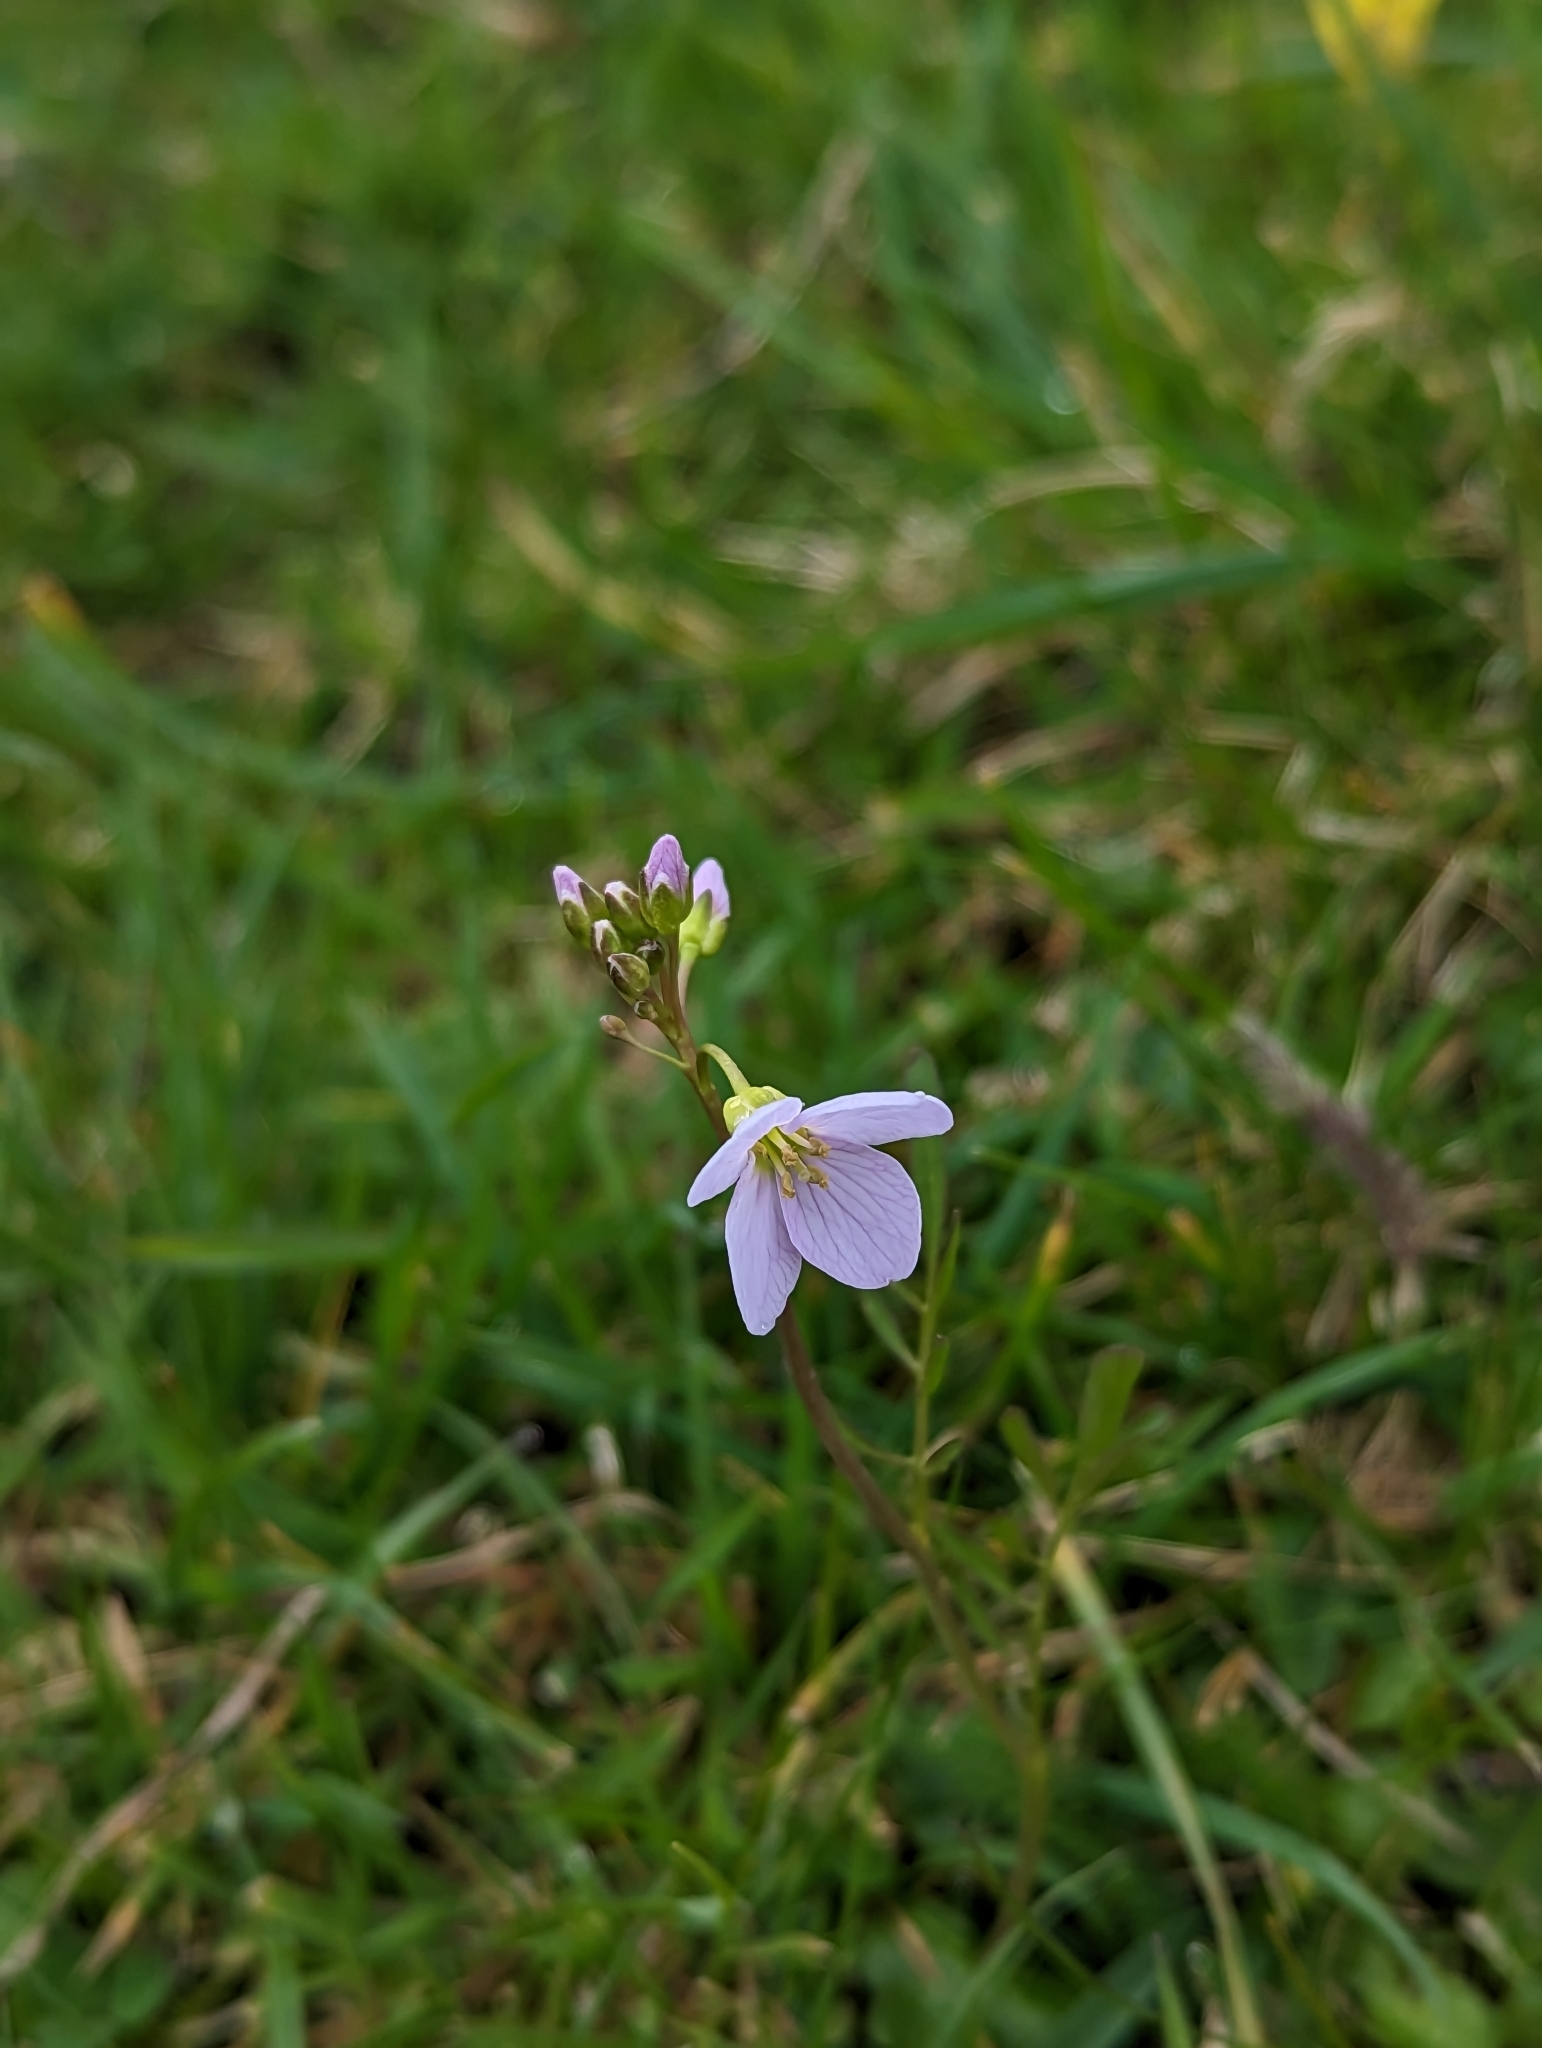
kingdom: Plantae
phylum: Tracheophyta
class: Magnoliopsida
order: Brassicales
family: Brassicaceae
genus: Cardamine
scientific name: Cardamine pratensis
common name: Cuckoo flower
